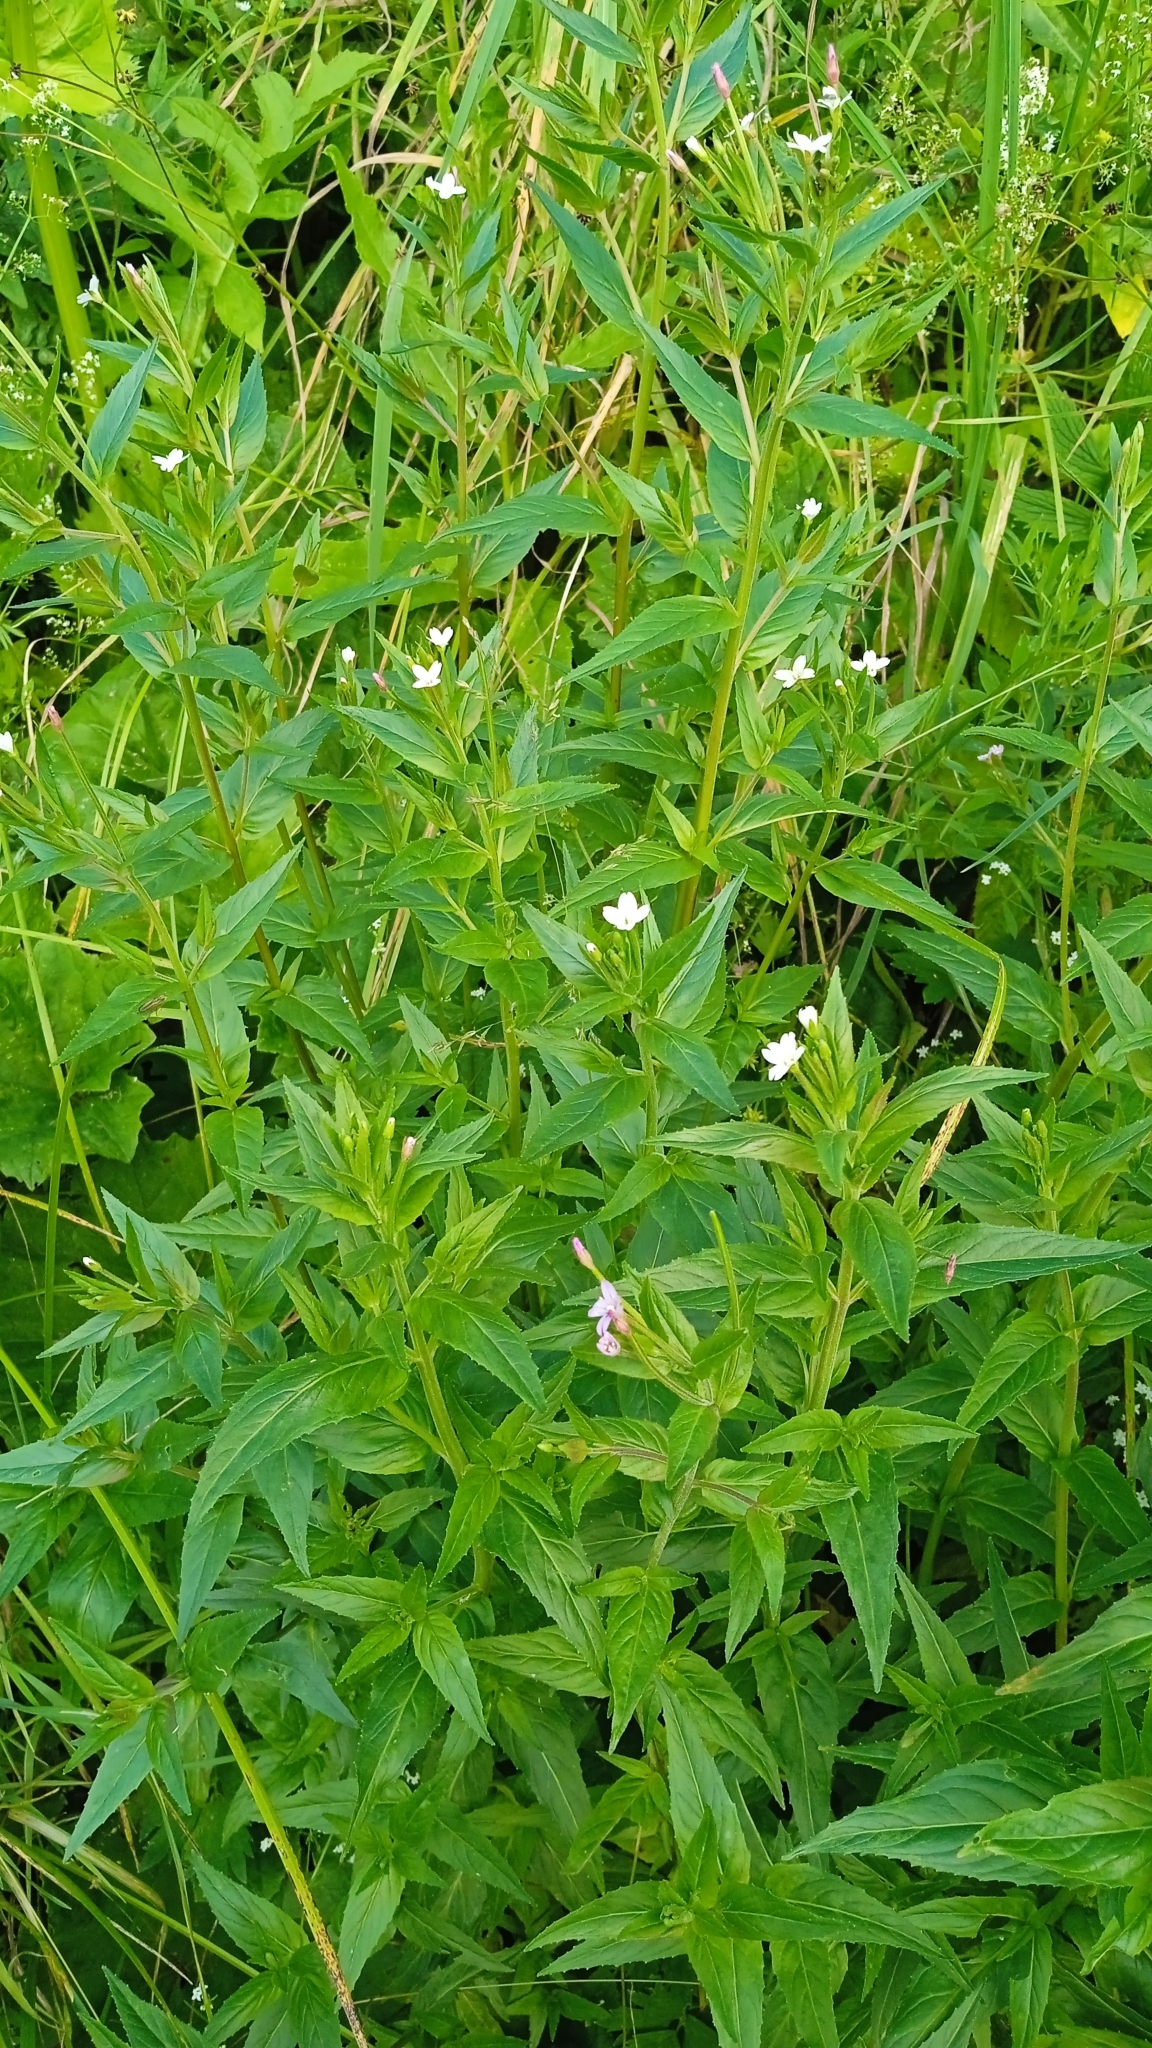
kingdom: Plantae
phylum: Tracheophyta
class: Magnoliopsida
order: Myrtales
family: Onagraceae
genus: Epilobium
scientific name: Epilobium pseudorubescens
